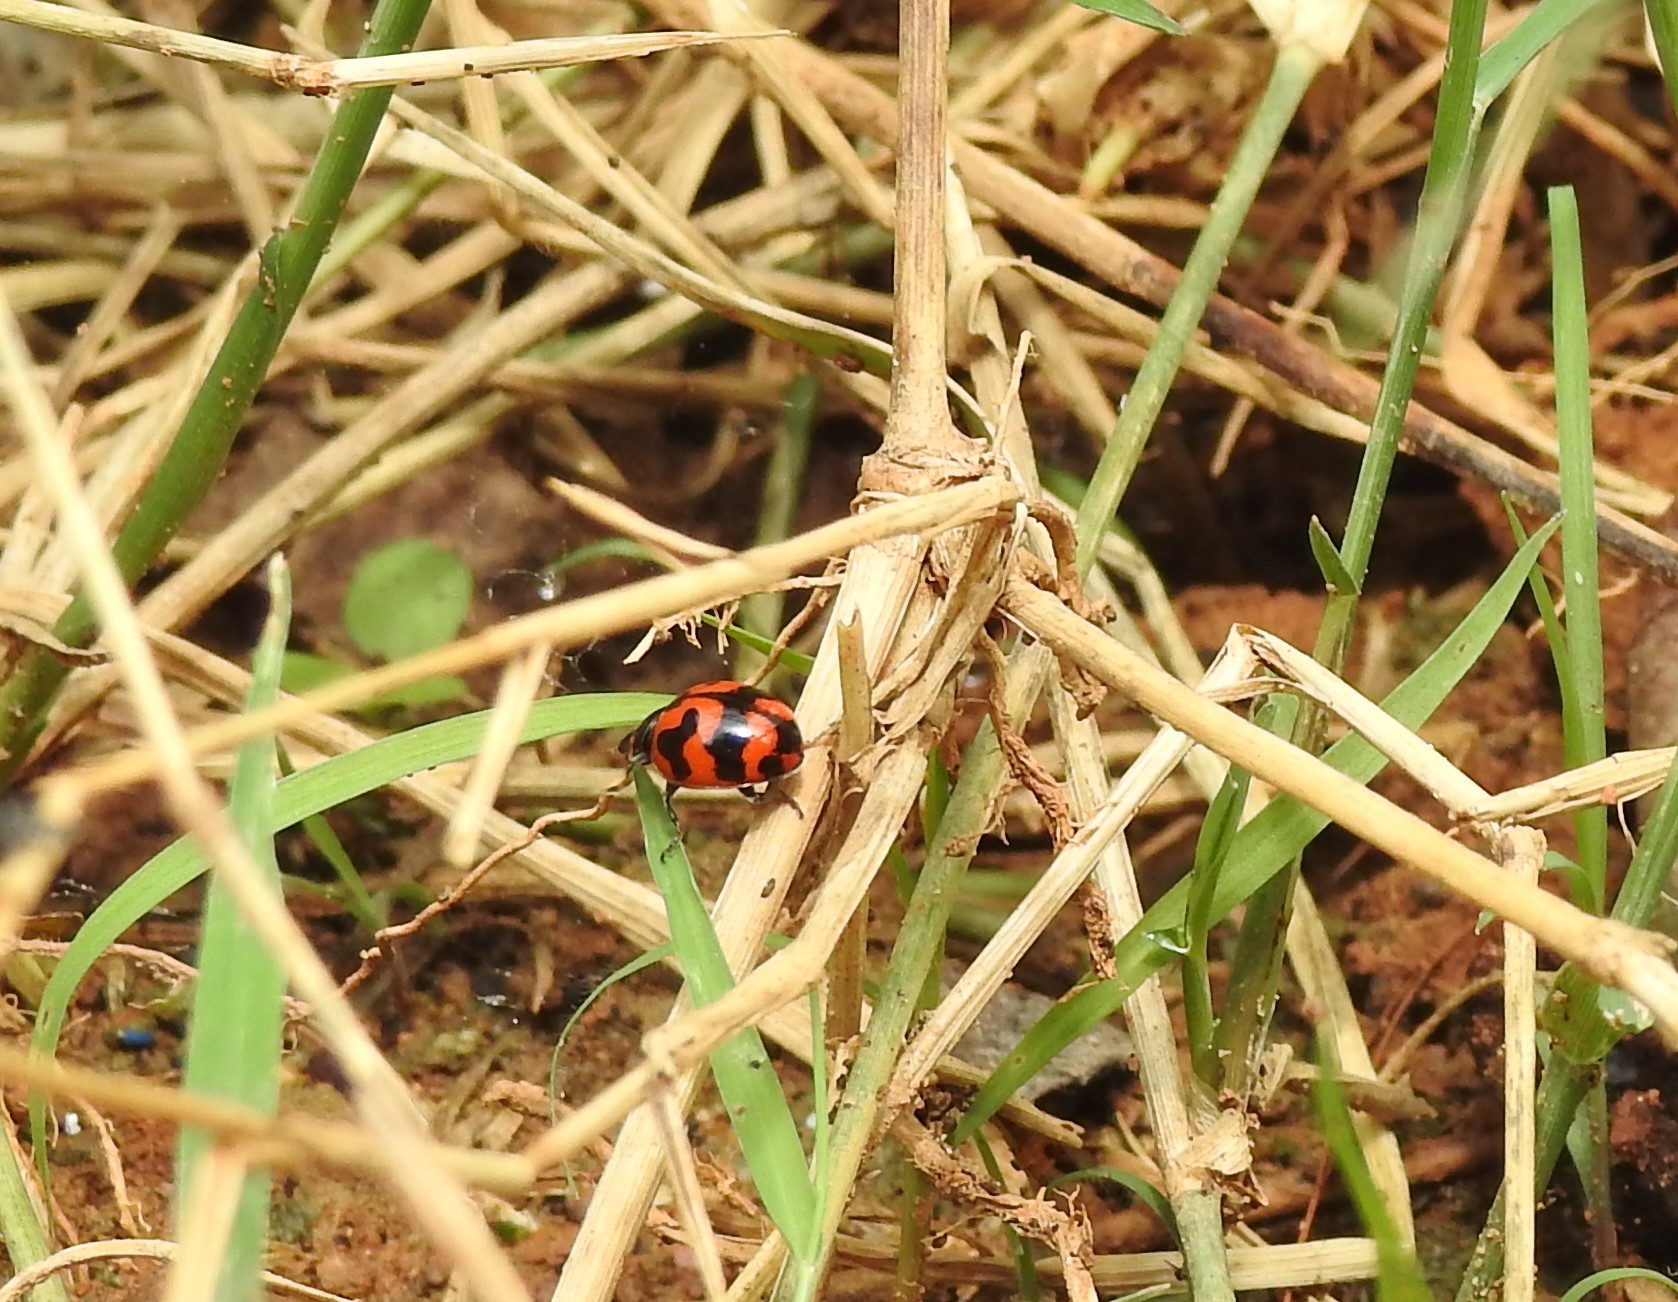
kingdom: Animalia
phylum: Arthropoda
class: Insecta
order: Coleoptera
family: Coccinellidae
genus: Coccinella
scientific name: Coccinella transversalis
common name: Transverse lady beetle
